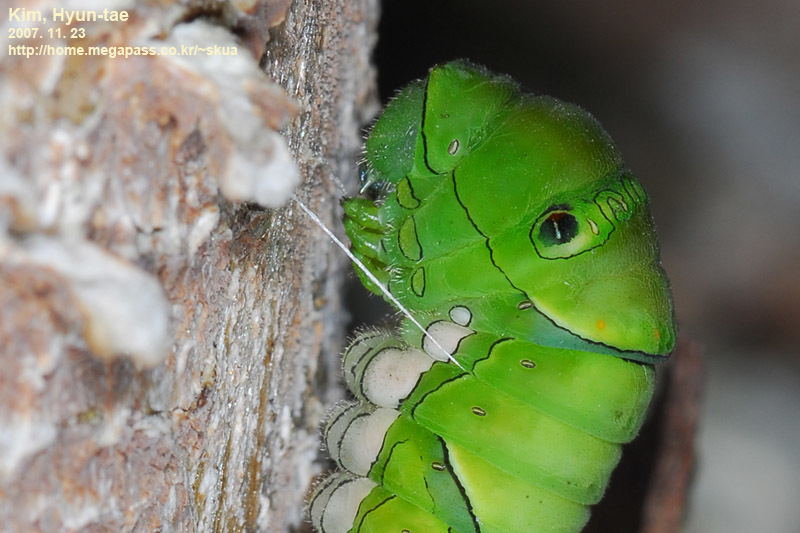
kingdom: Animalia
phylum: Arthropoda
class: Insecta
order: Lepidoptera
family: Papilionidae
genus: Papilio
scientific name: Papilio xuthus
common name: Asian swallowtail
